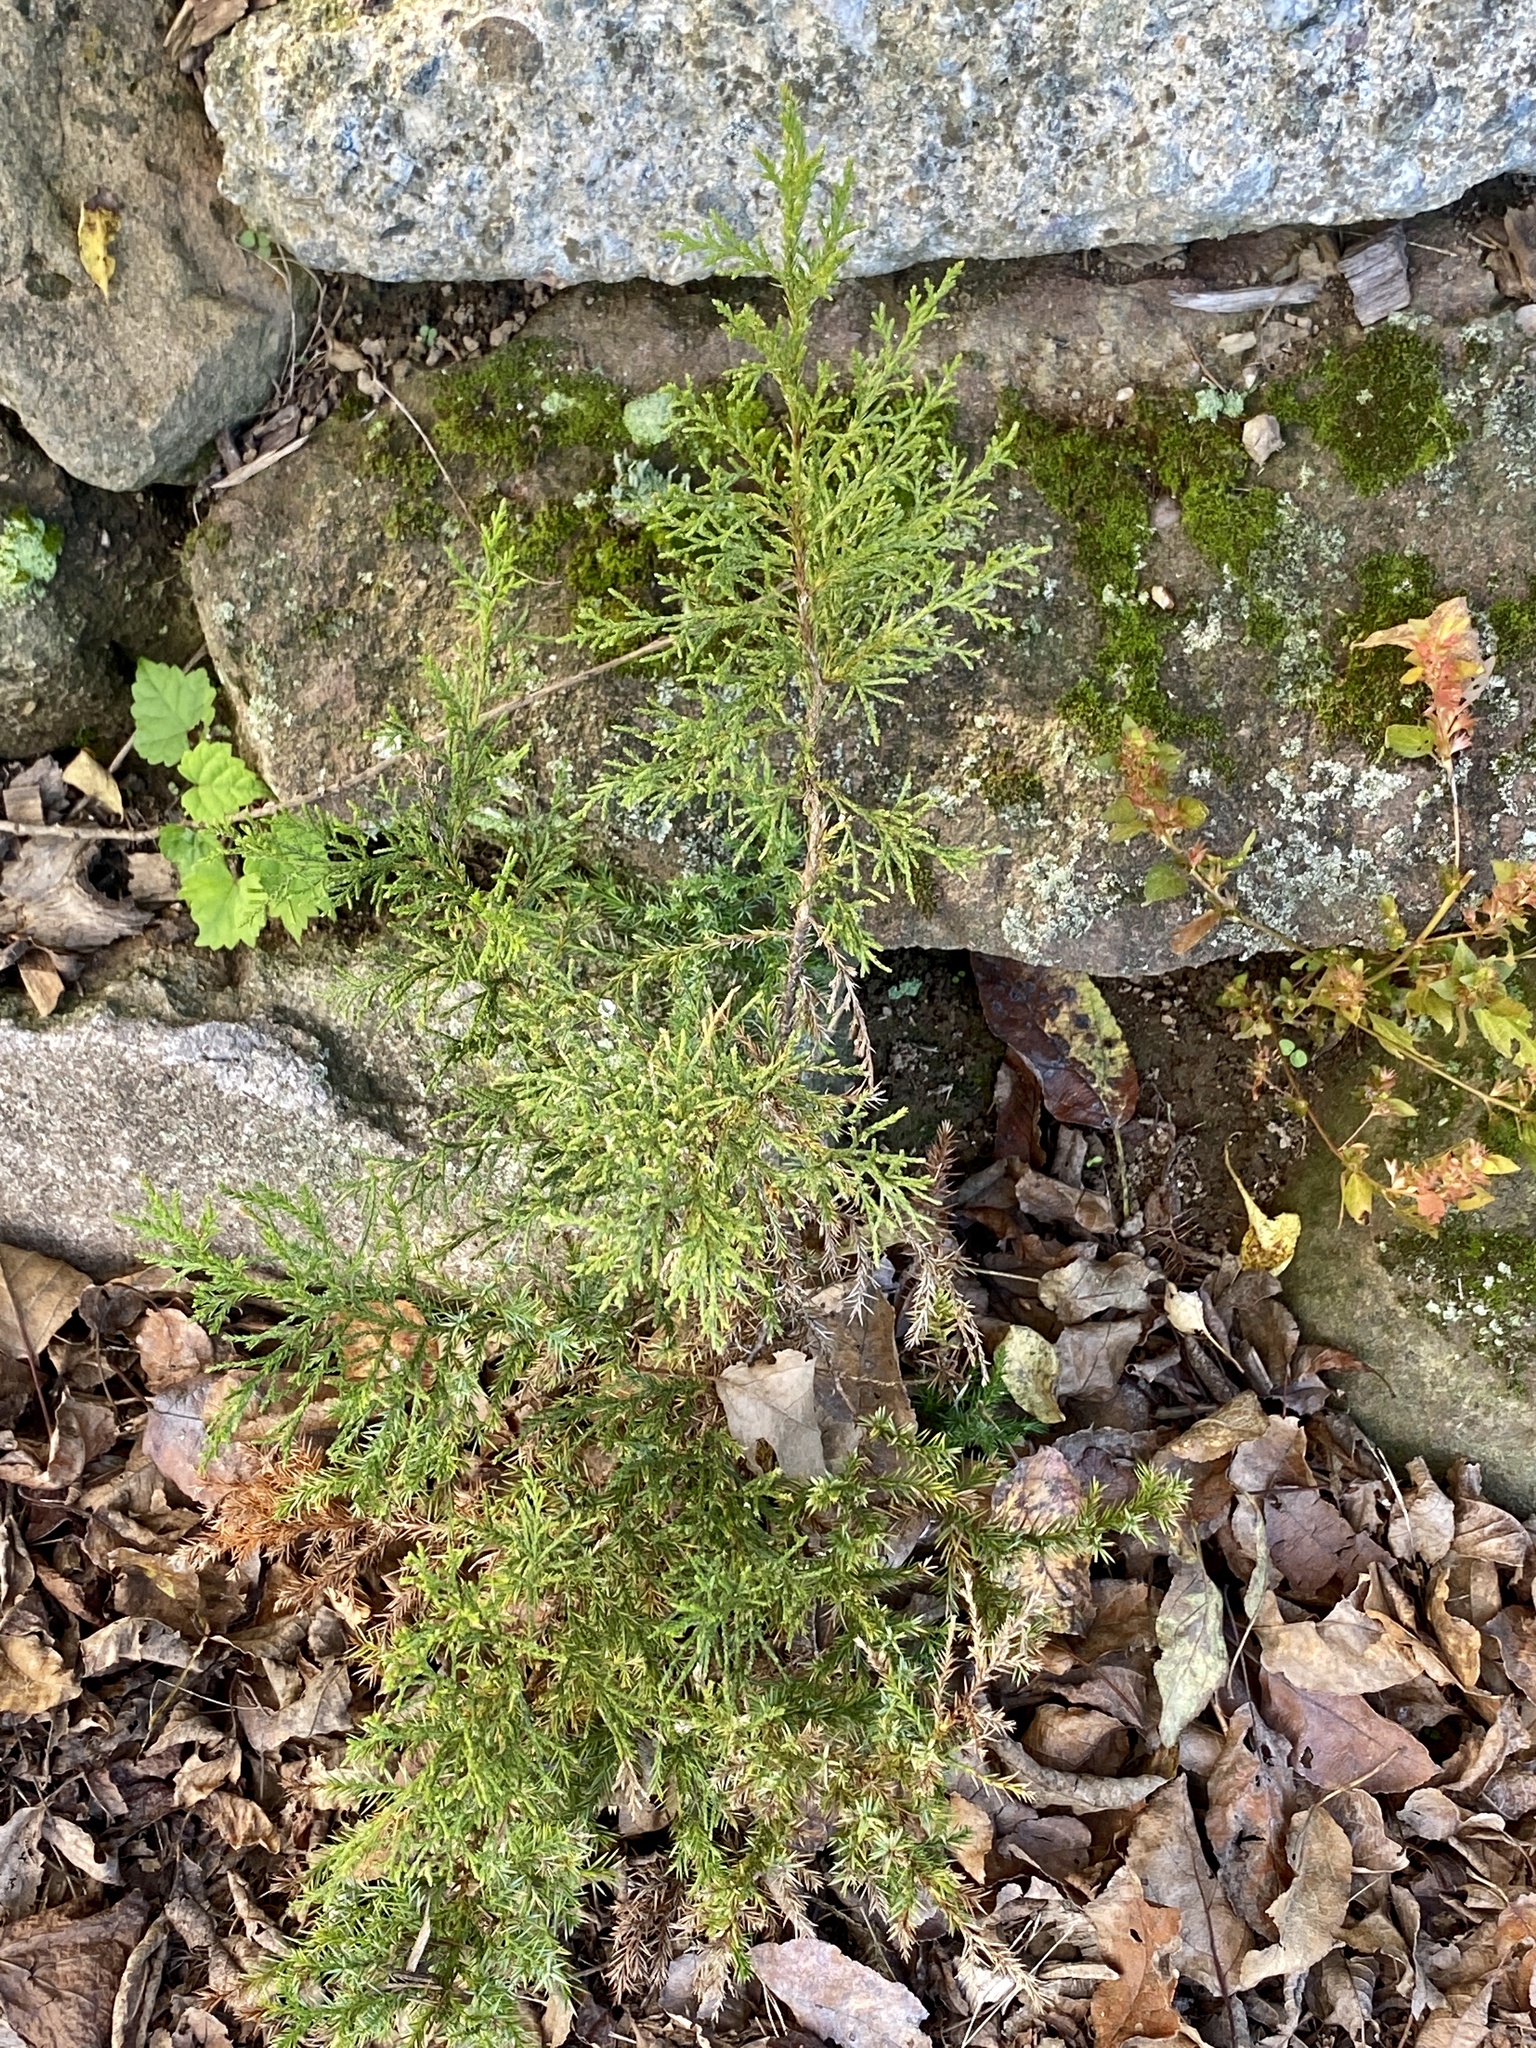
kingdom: Plantae
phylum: Tracheophyta
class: Pinopsida
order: Pinales
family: Cupressaceae
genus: Juniperus
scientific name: Juniperus virginiana
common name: Red juniper
